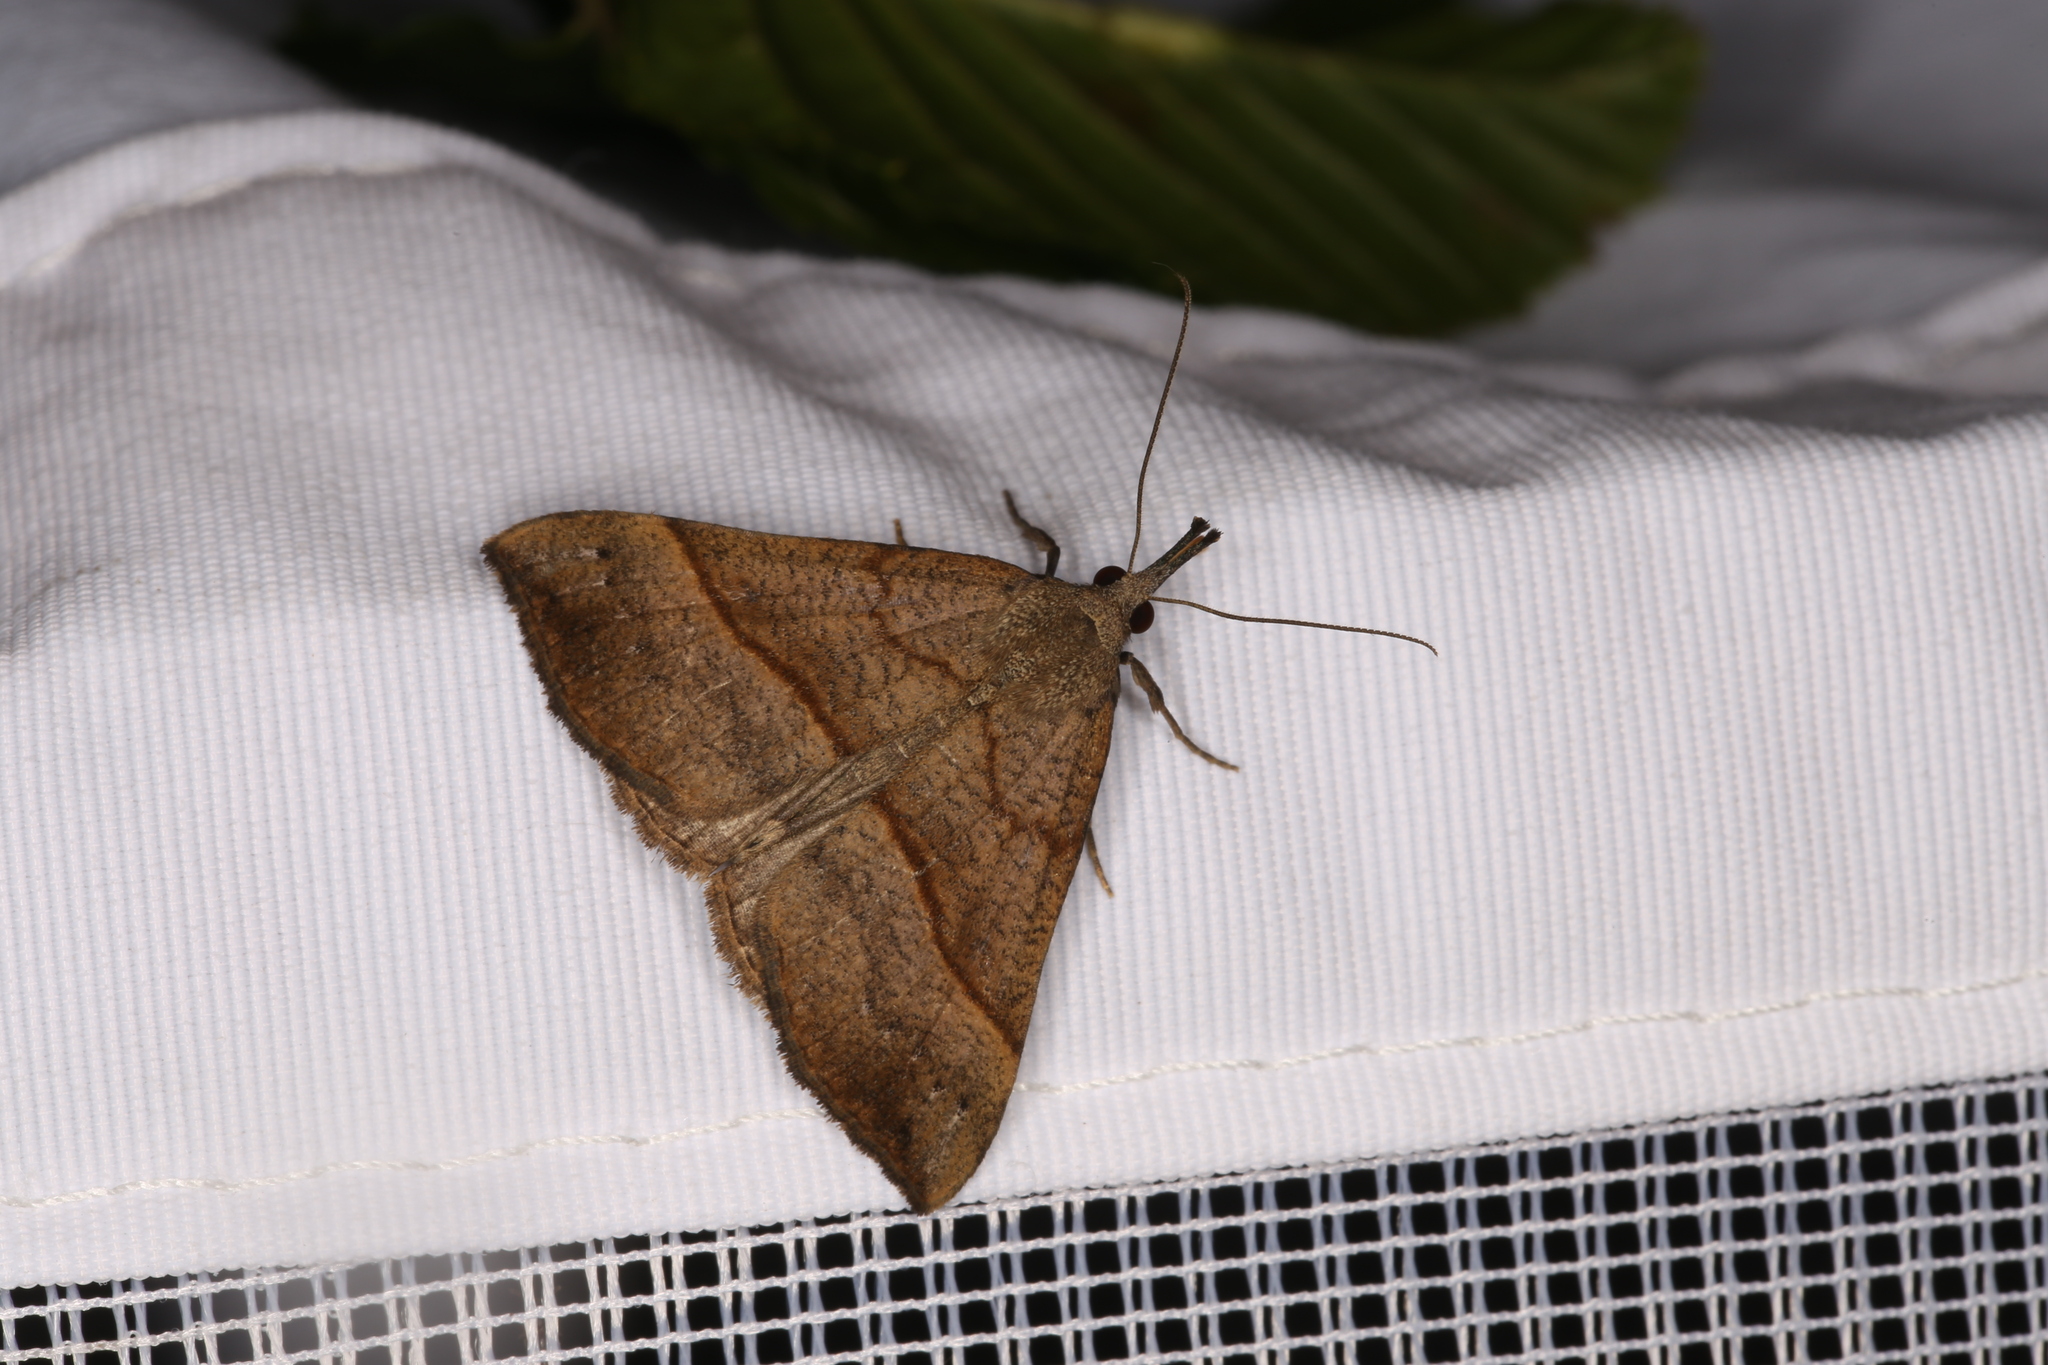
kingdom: Animalia
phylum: Arthropoda
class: Insecta
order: Lepidoptera
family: Erebidae
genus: Hypena
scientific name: Hypena proboscidalis
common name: Snout
